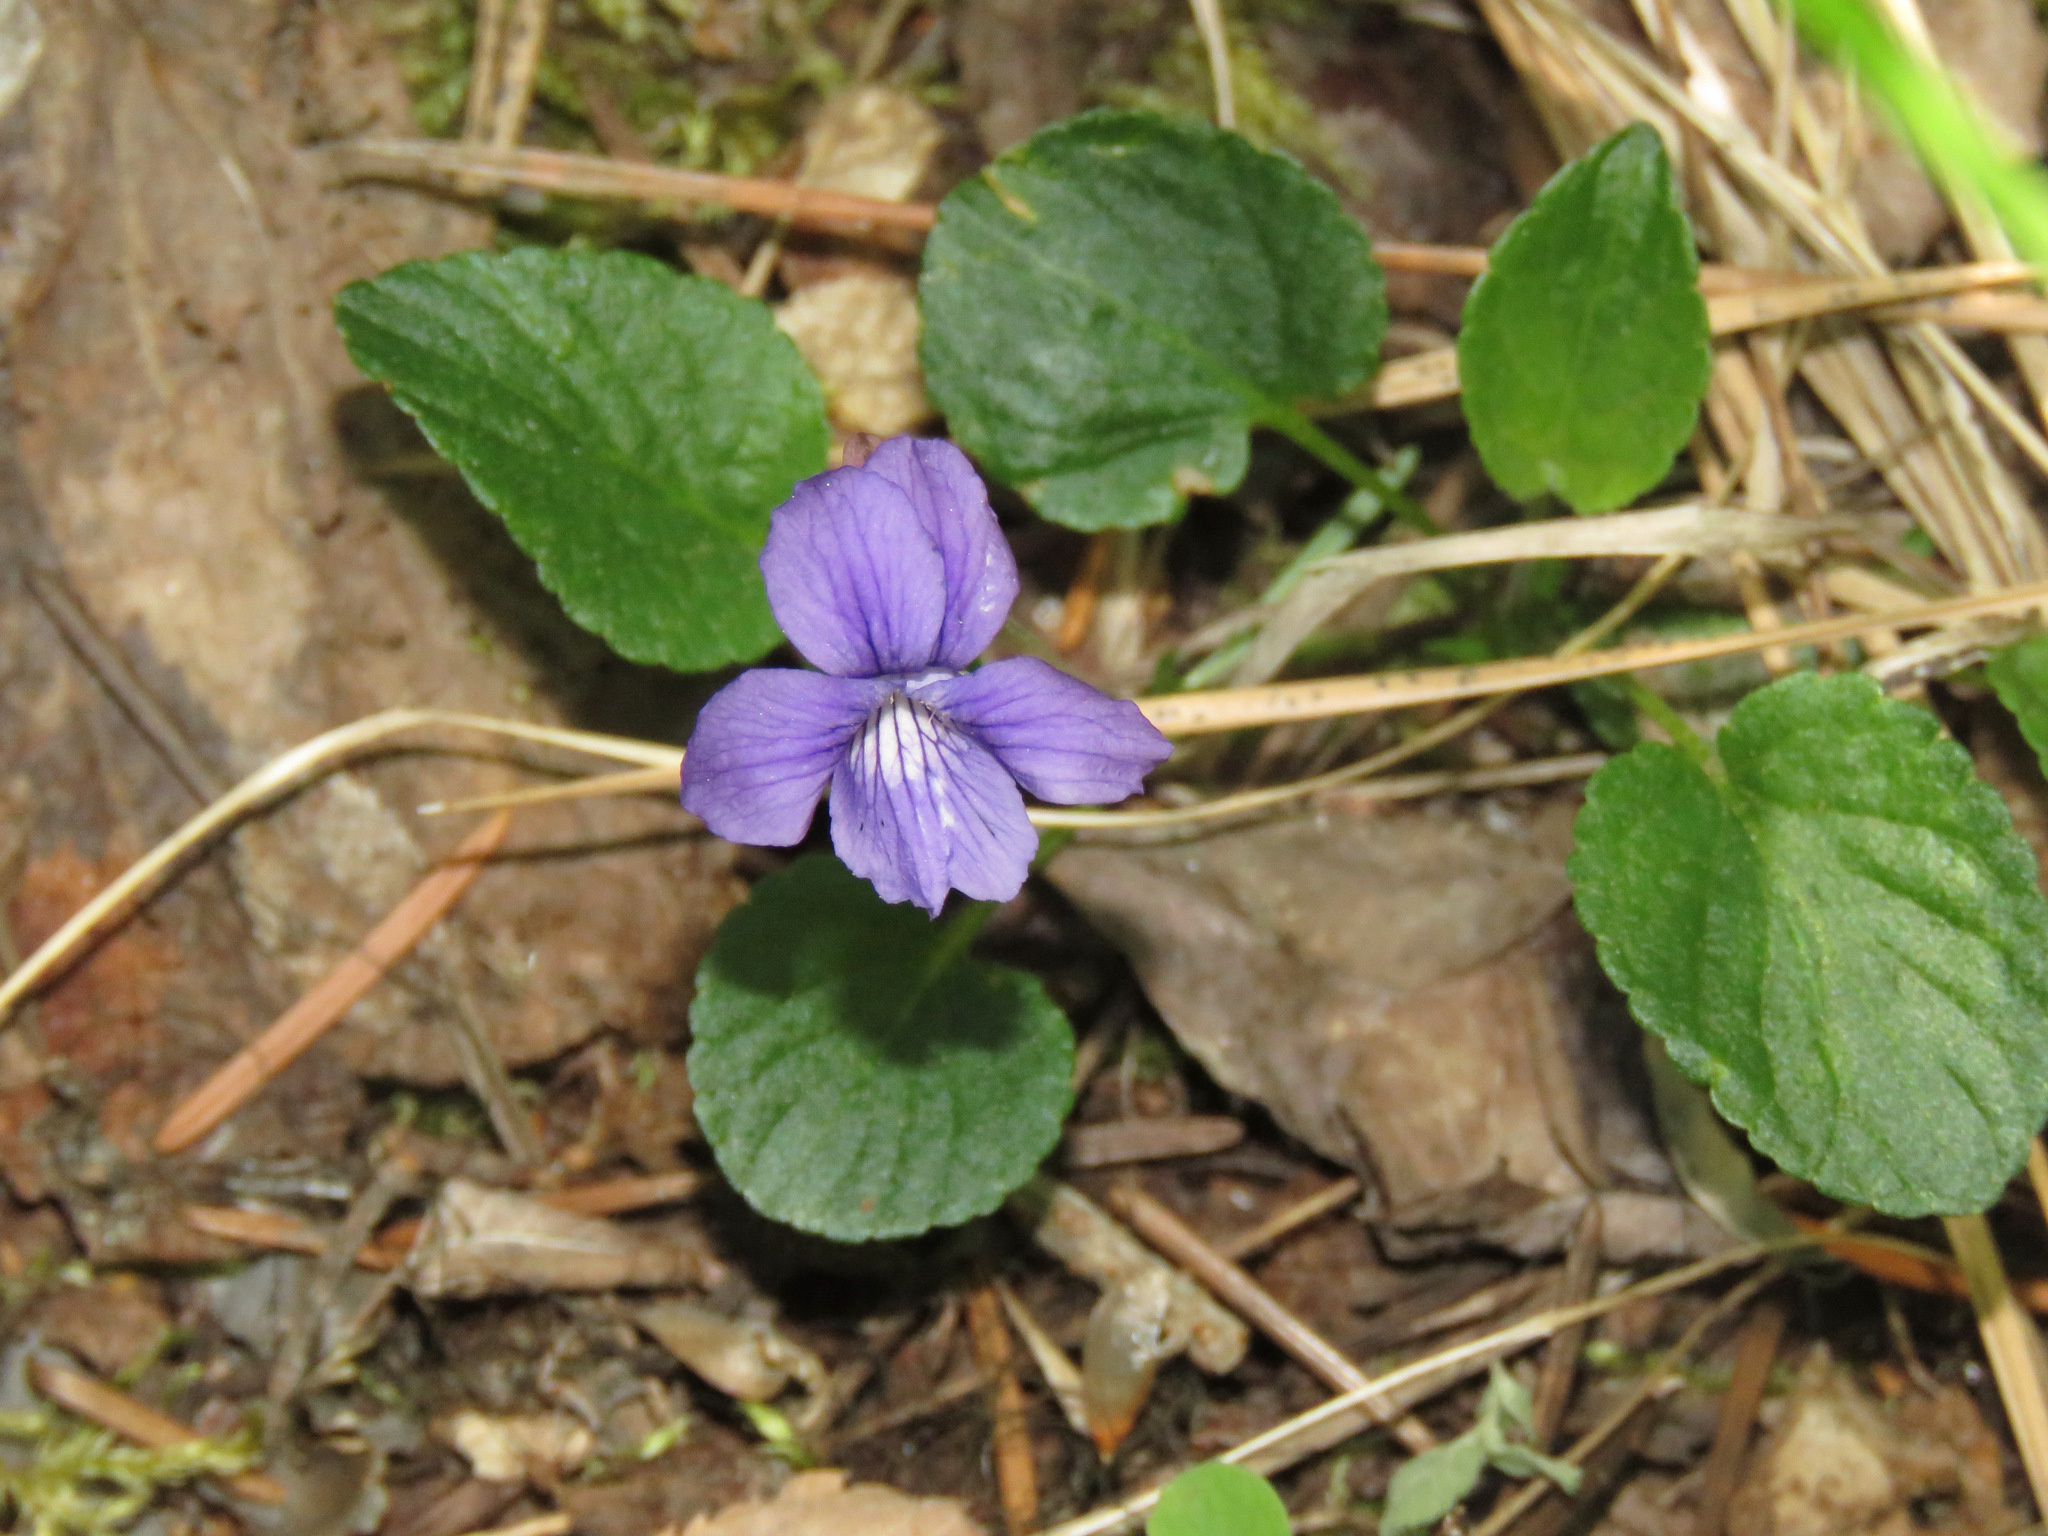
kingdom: Plantae
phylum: Tracheophyta
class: Magnoliopsida
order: Malpighiales
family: Violaceae
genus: Viola
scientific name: Viola adunca
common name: Sand violet
